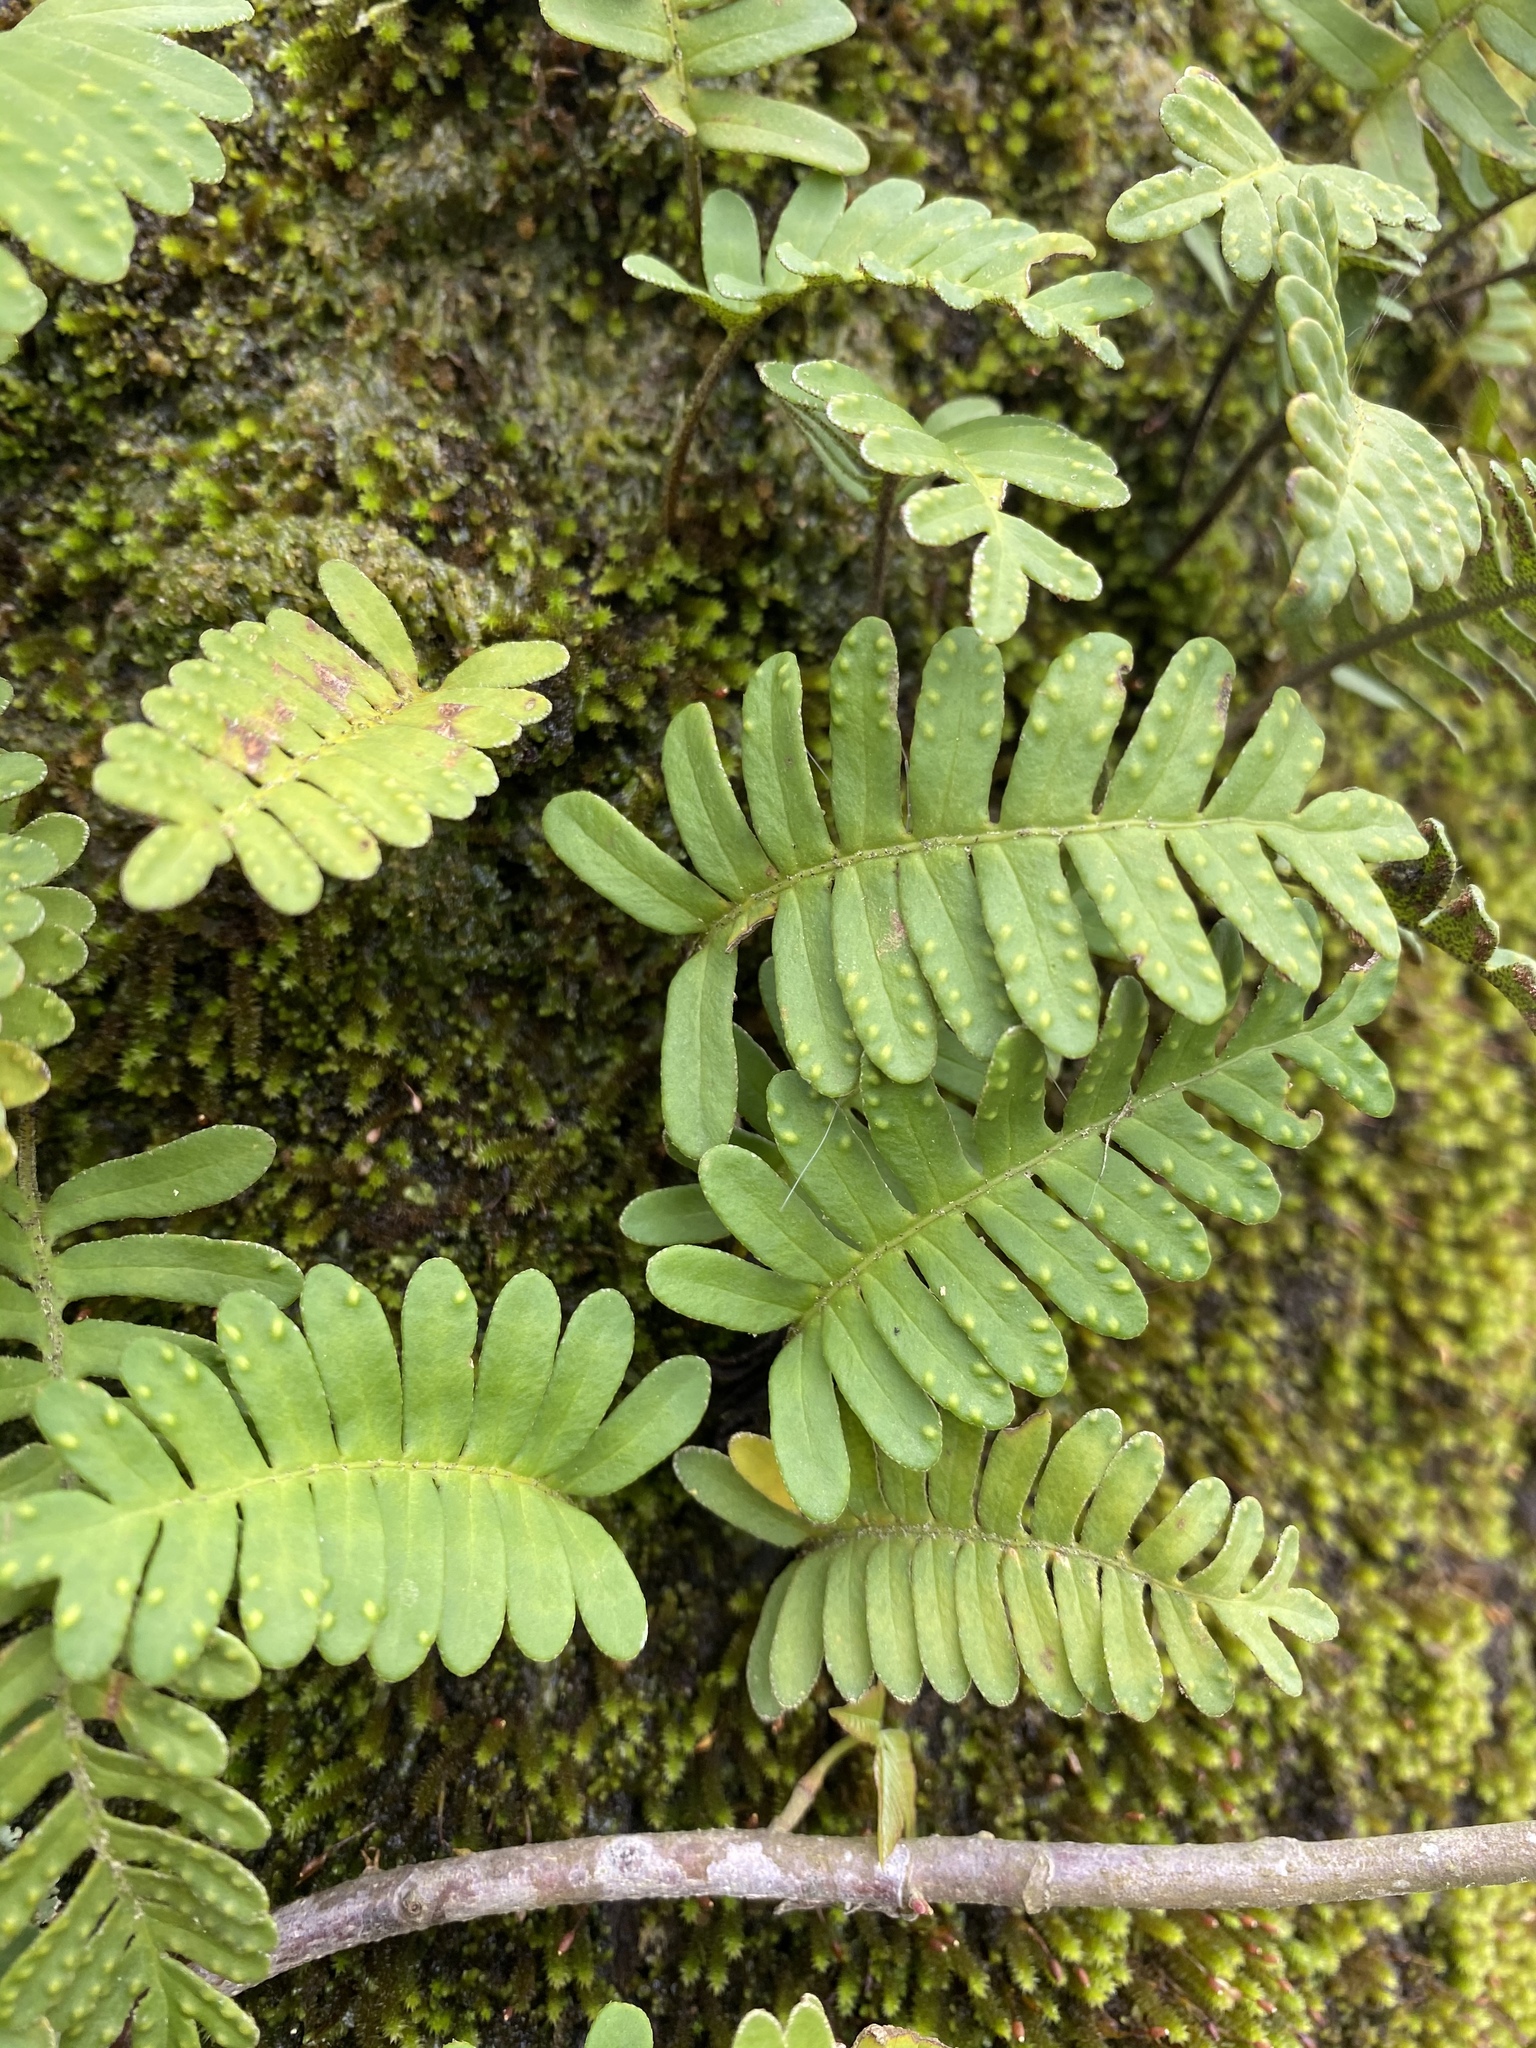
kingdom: Plantae
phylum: Tracheophyta
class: Polypodiopsida
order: Polypodiales
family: Polypodiaceae
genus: Pleopeltis
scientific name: Pleopeltis michauxiana
